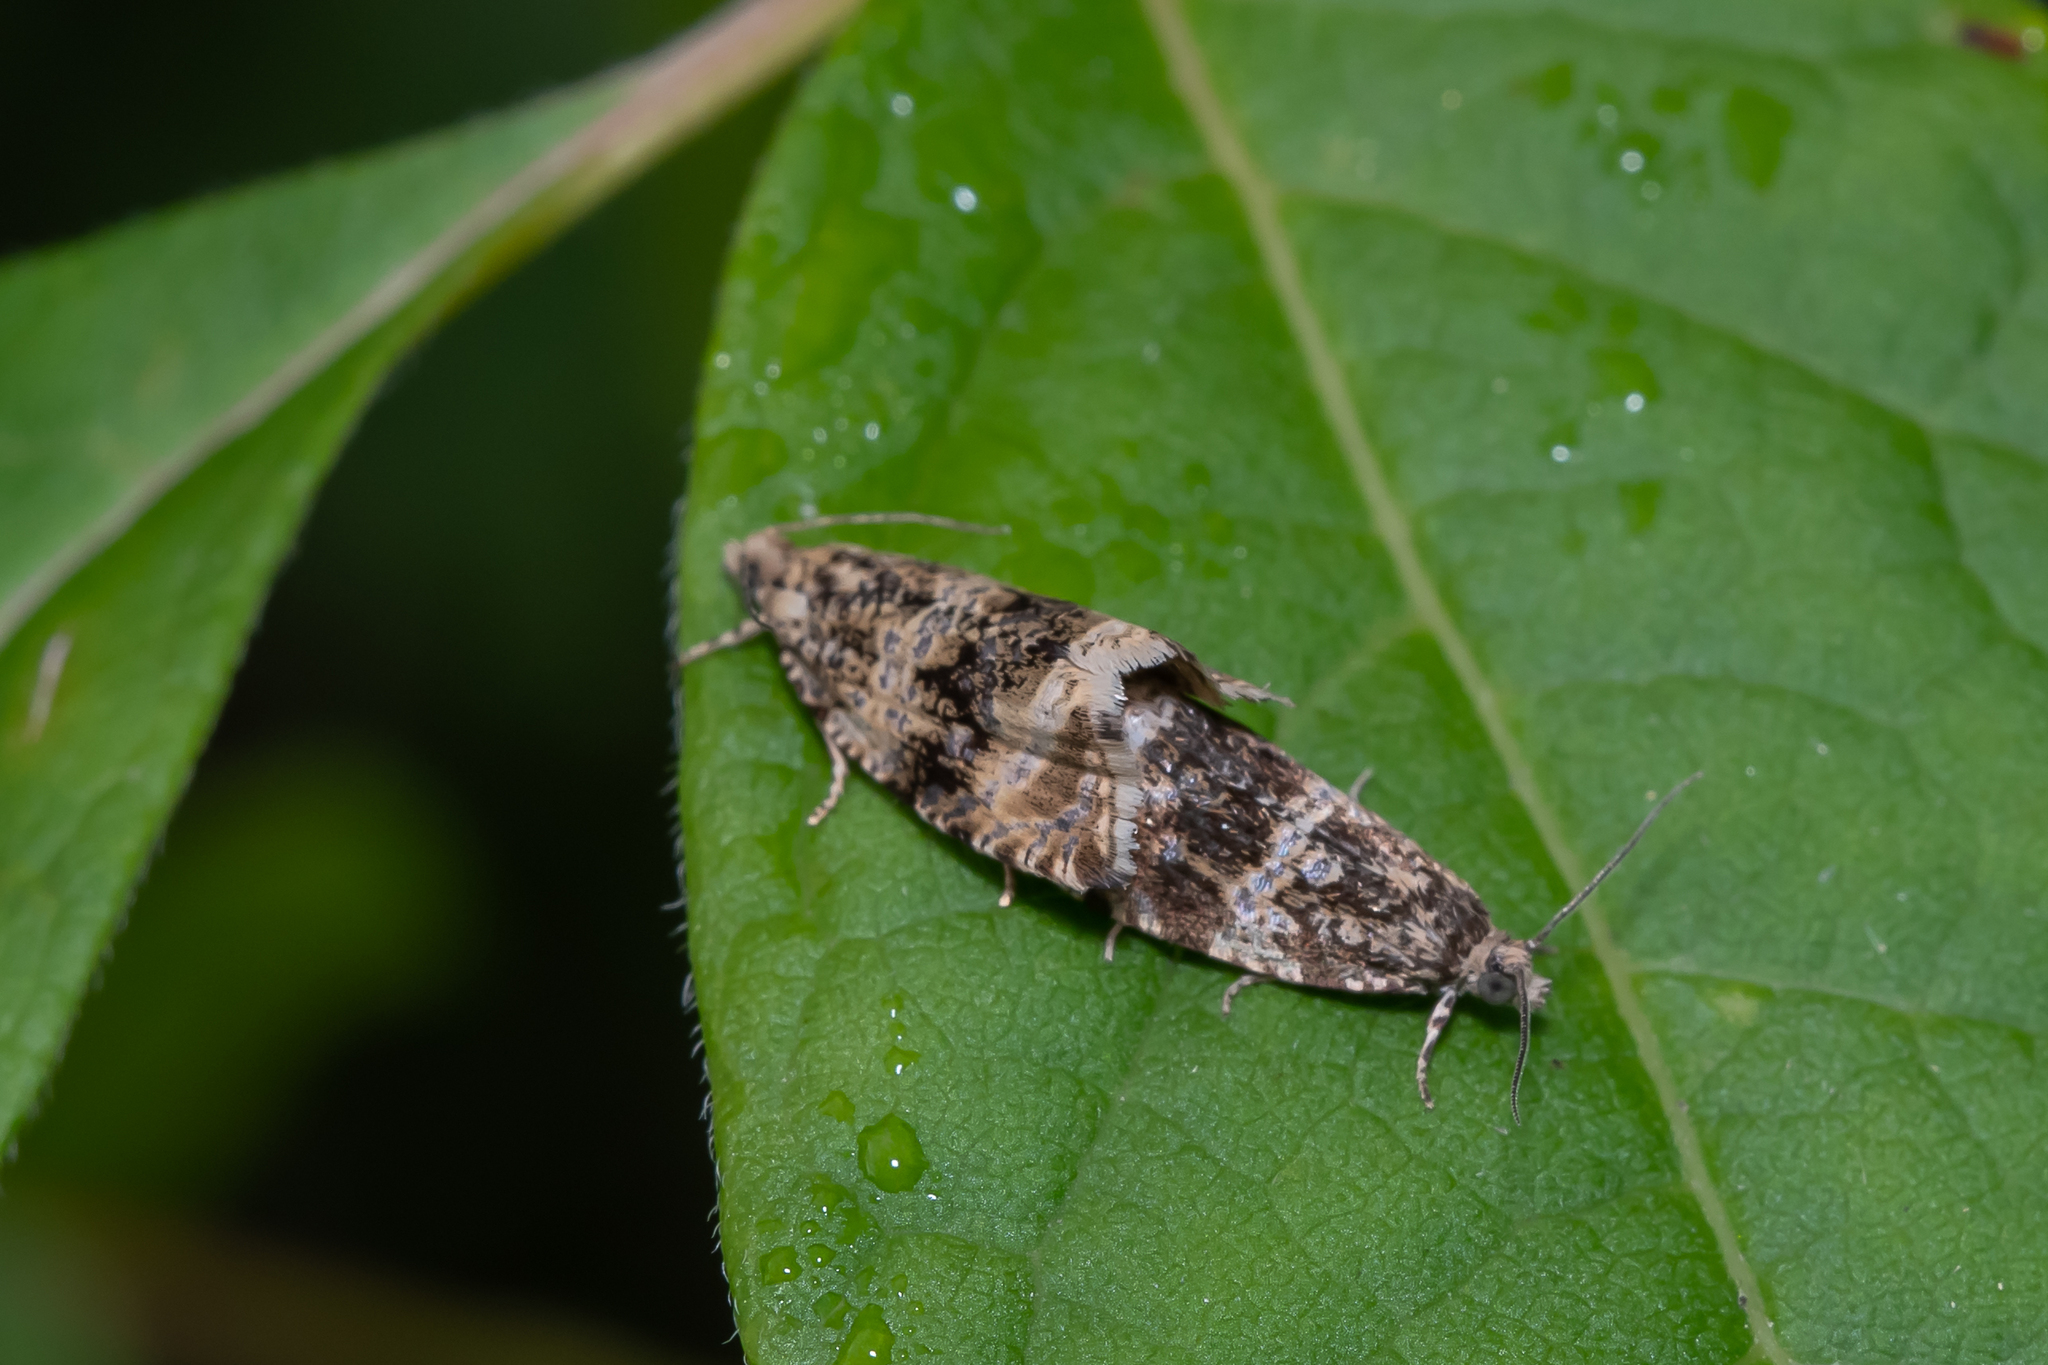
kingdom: Animalia
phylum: Arthropoda
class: Insecta
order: Lepidoptera
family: Tortricidae
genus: Syricoris
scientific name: Syricoris lacunana
